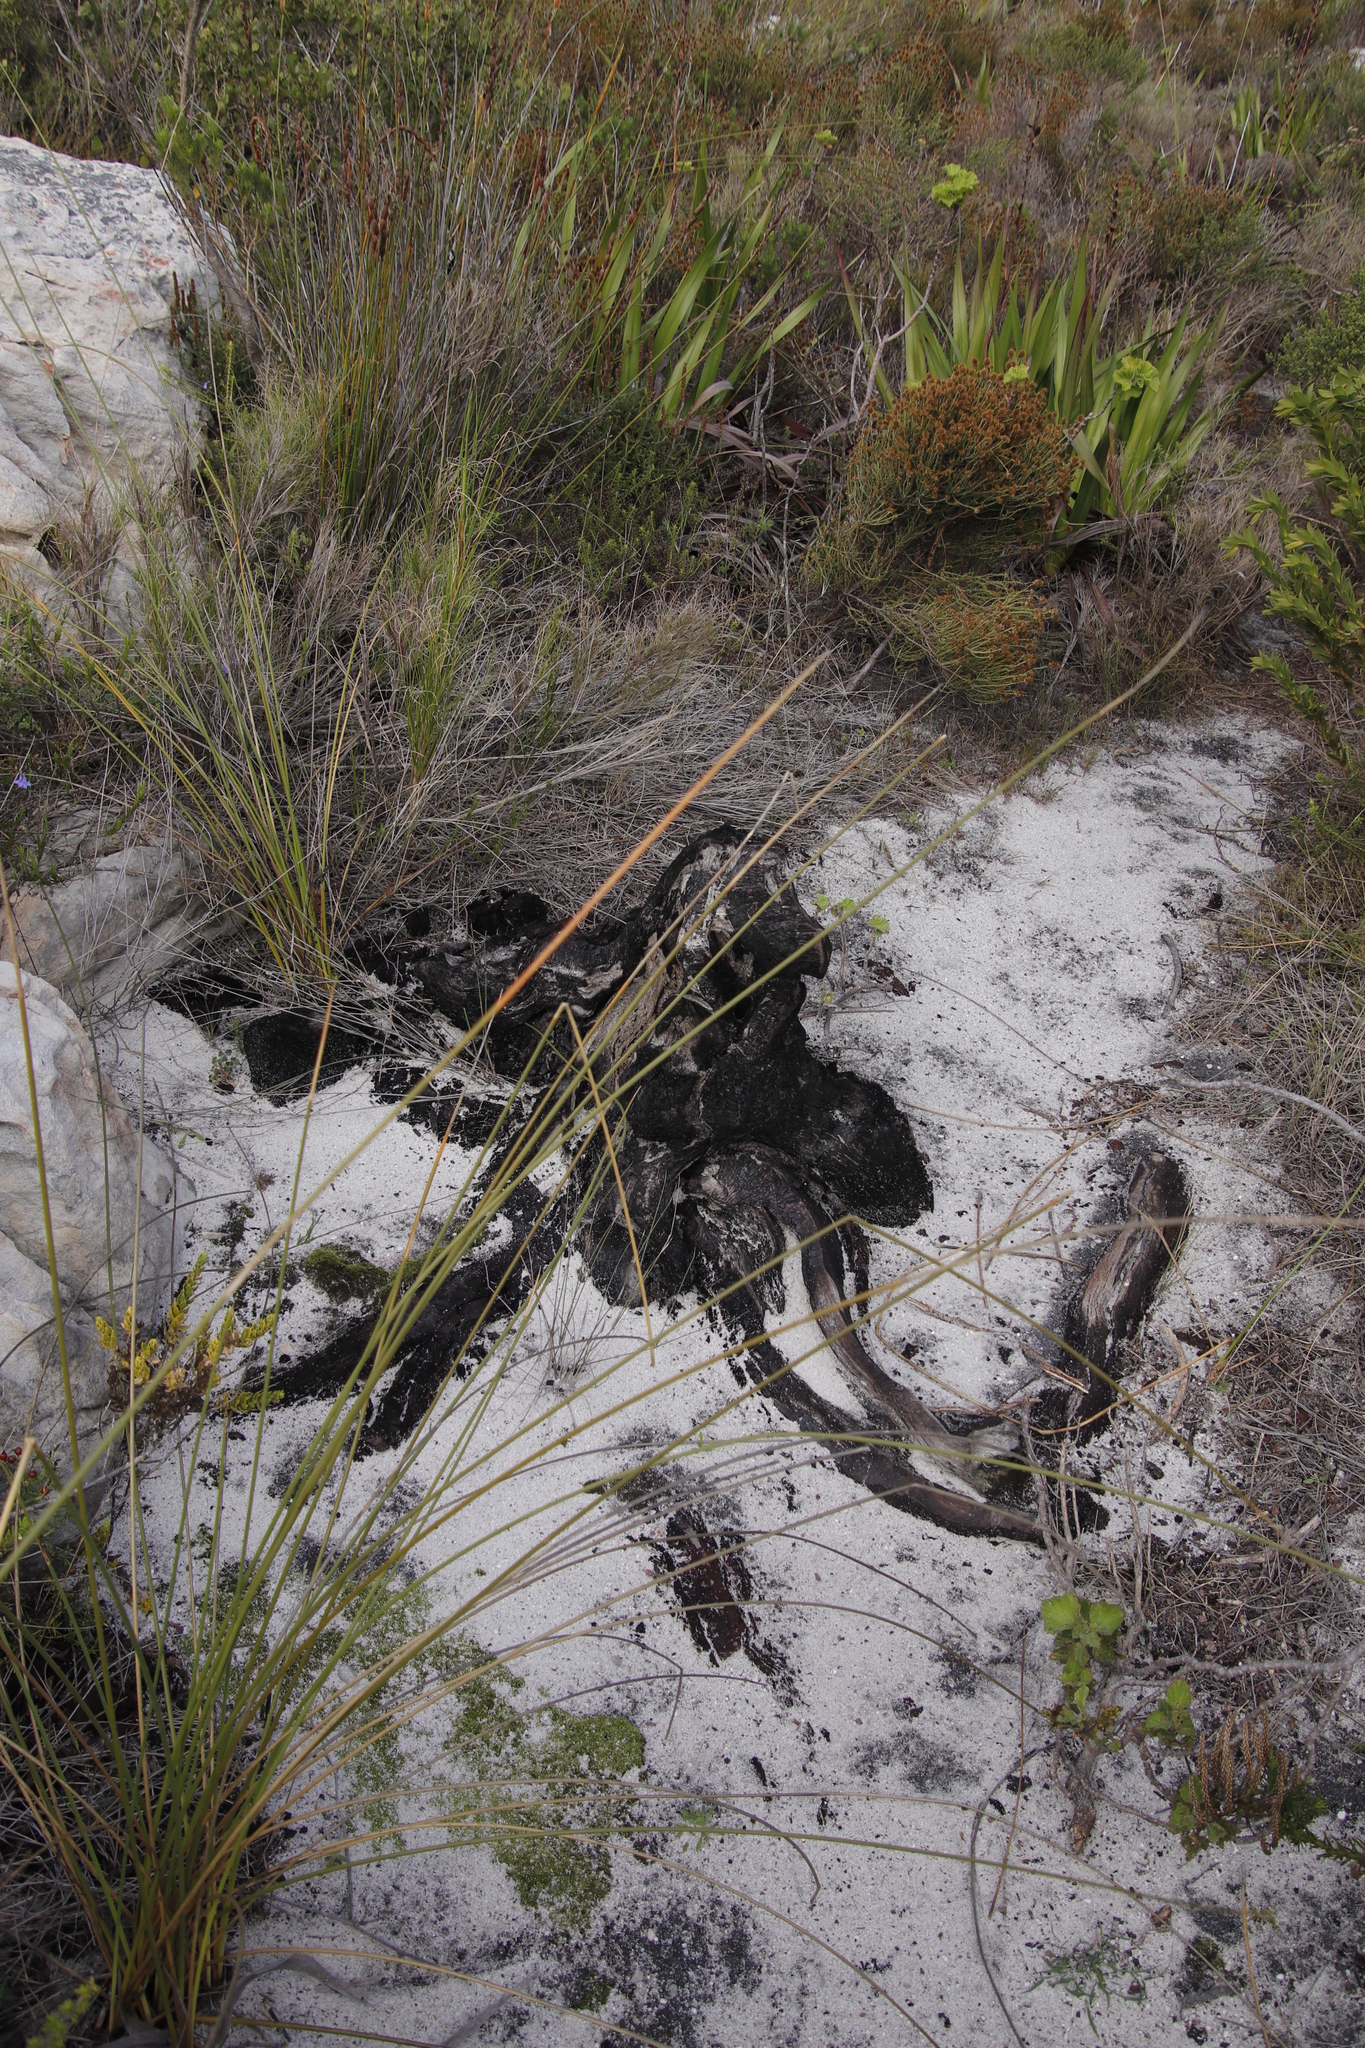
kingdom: Plantae
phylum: Tracheophyta
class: Magnoliopsida
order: Proteales
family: Proteaceae
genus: Leucospermum
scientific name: Leucospermum conocarpodendron
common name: Tree pincushion
